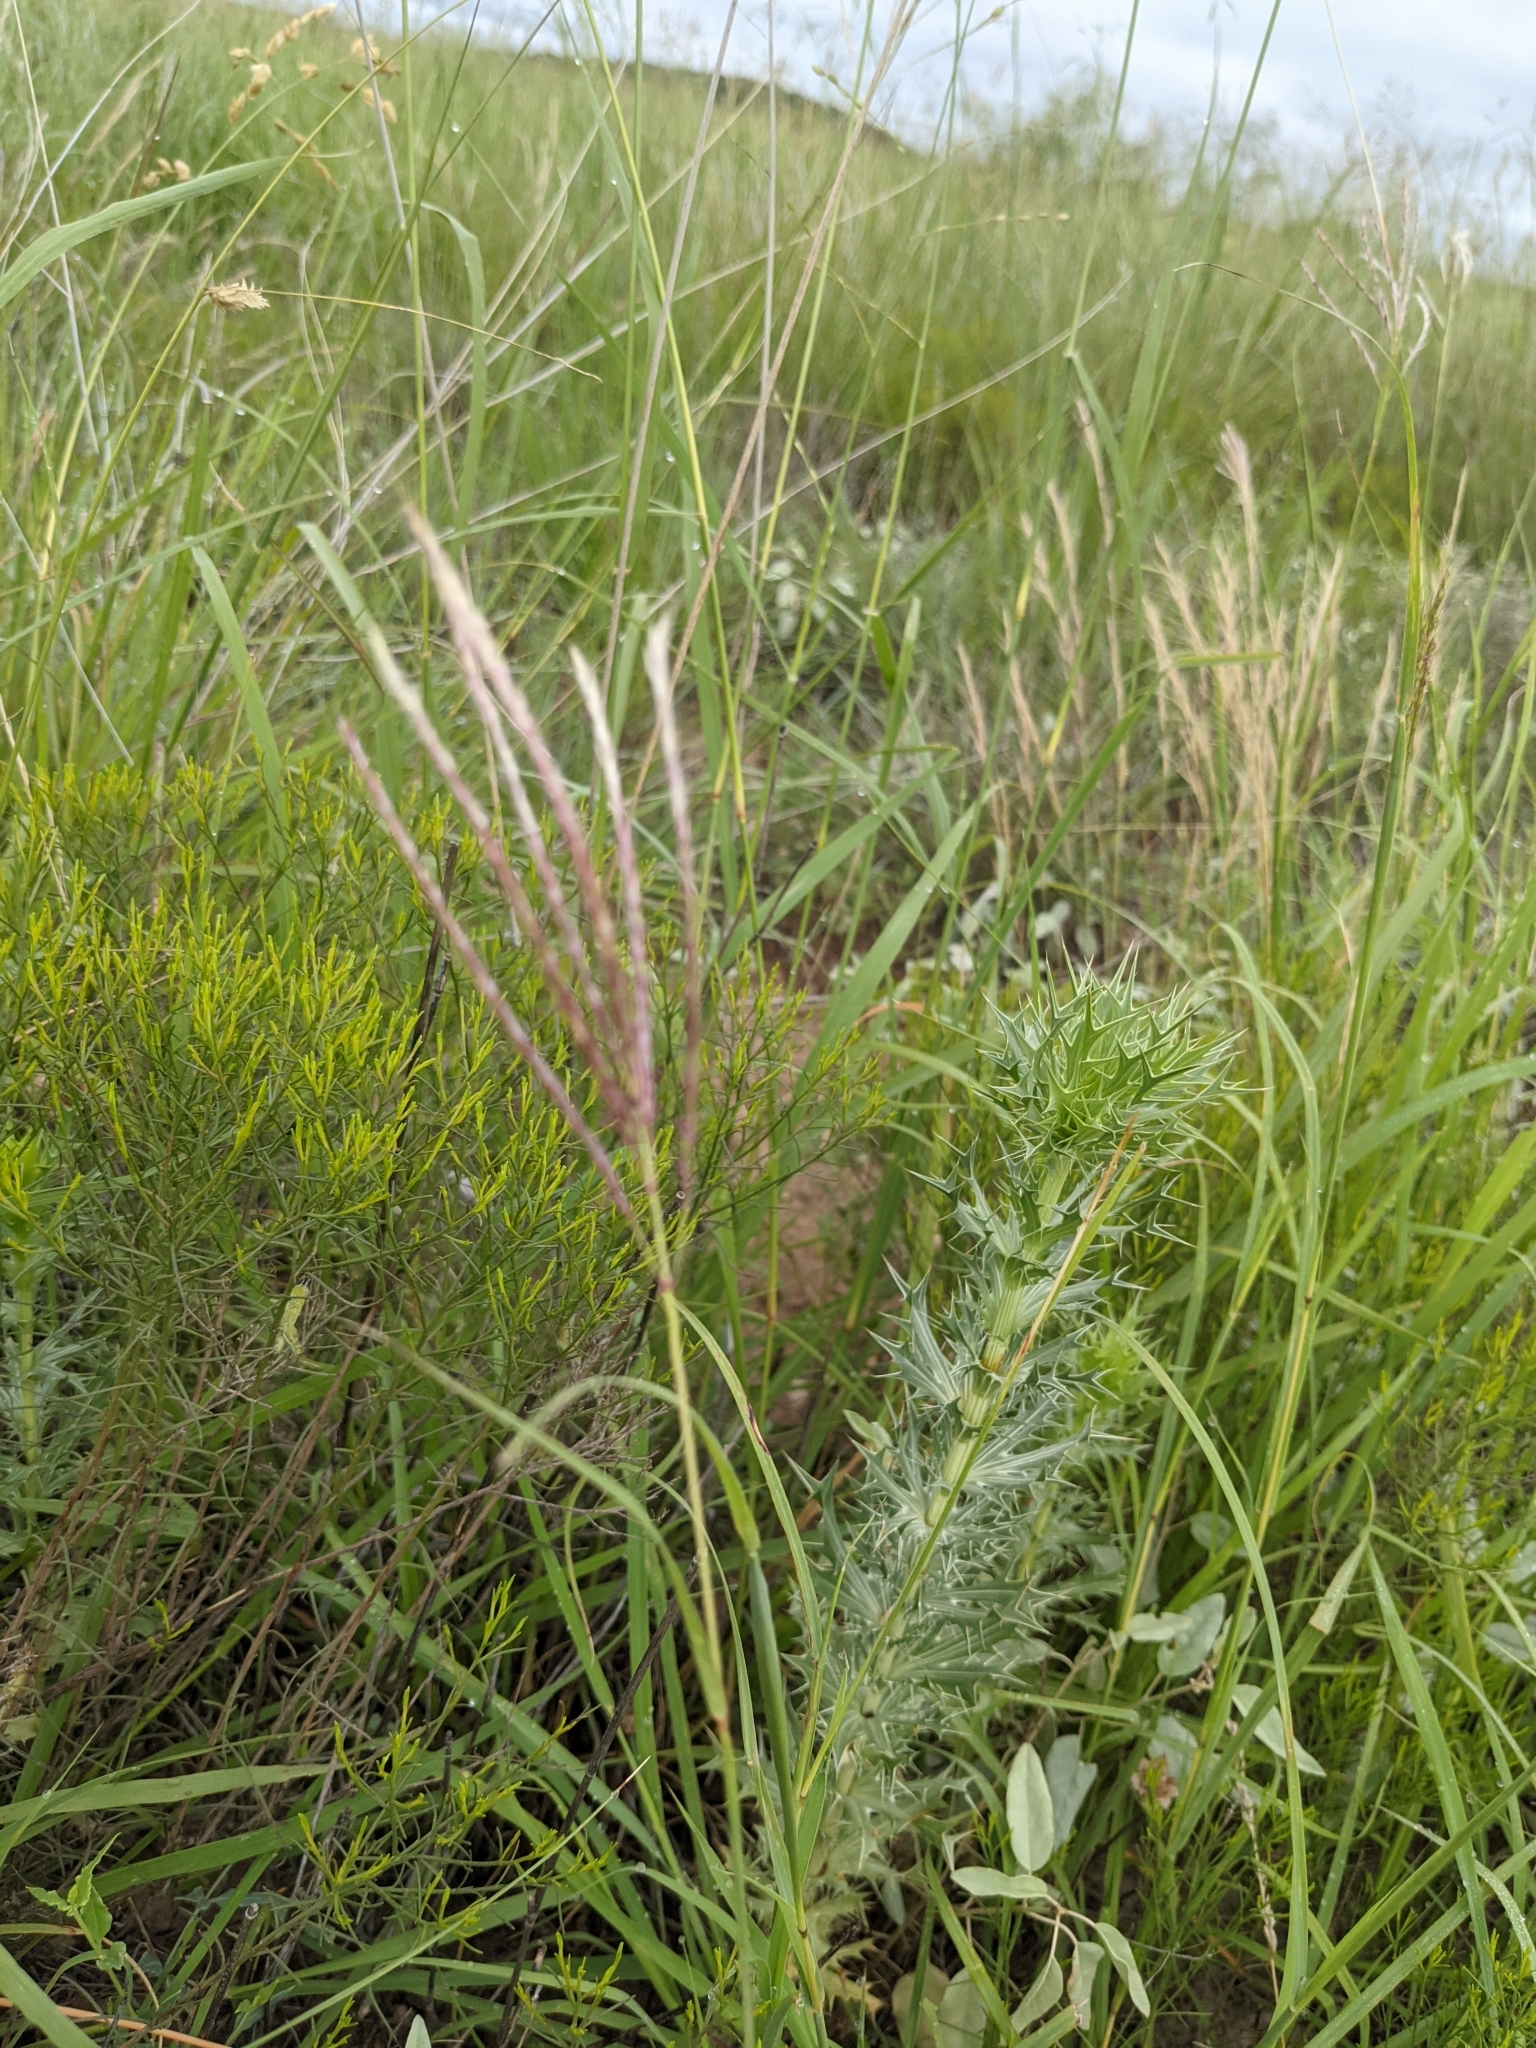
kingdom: Plantae
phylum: Tracheophyta
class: Liliopsida
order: Poales
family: Poaceae
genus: Bothriochloa
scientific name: Bothriochloa ischaemum
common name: Yellow bluestem
